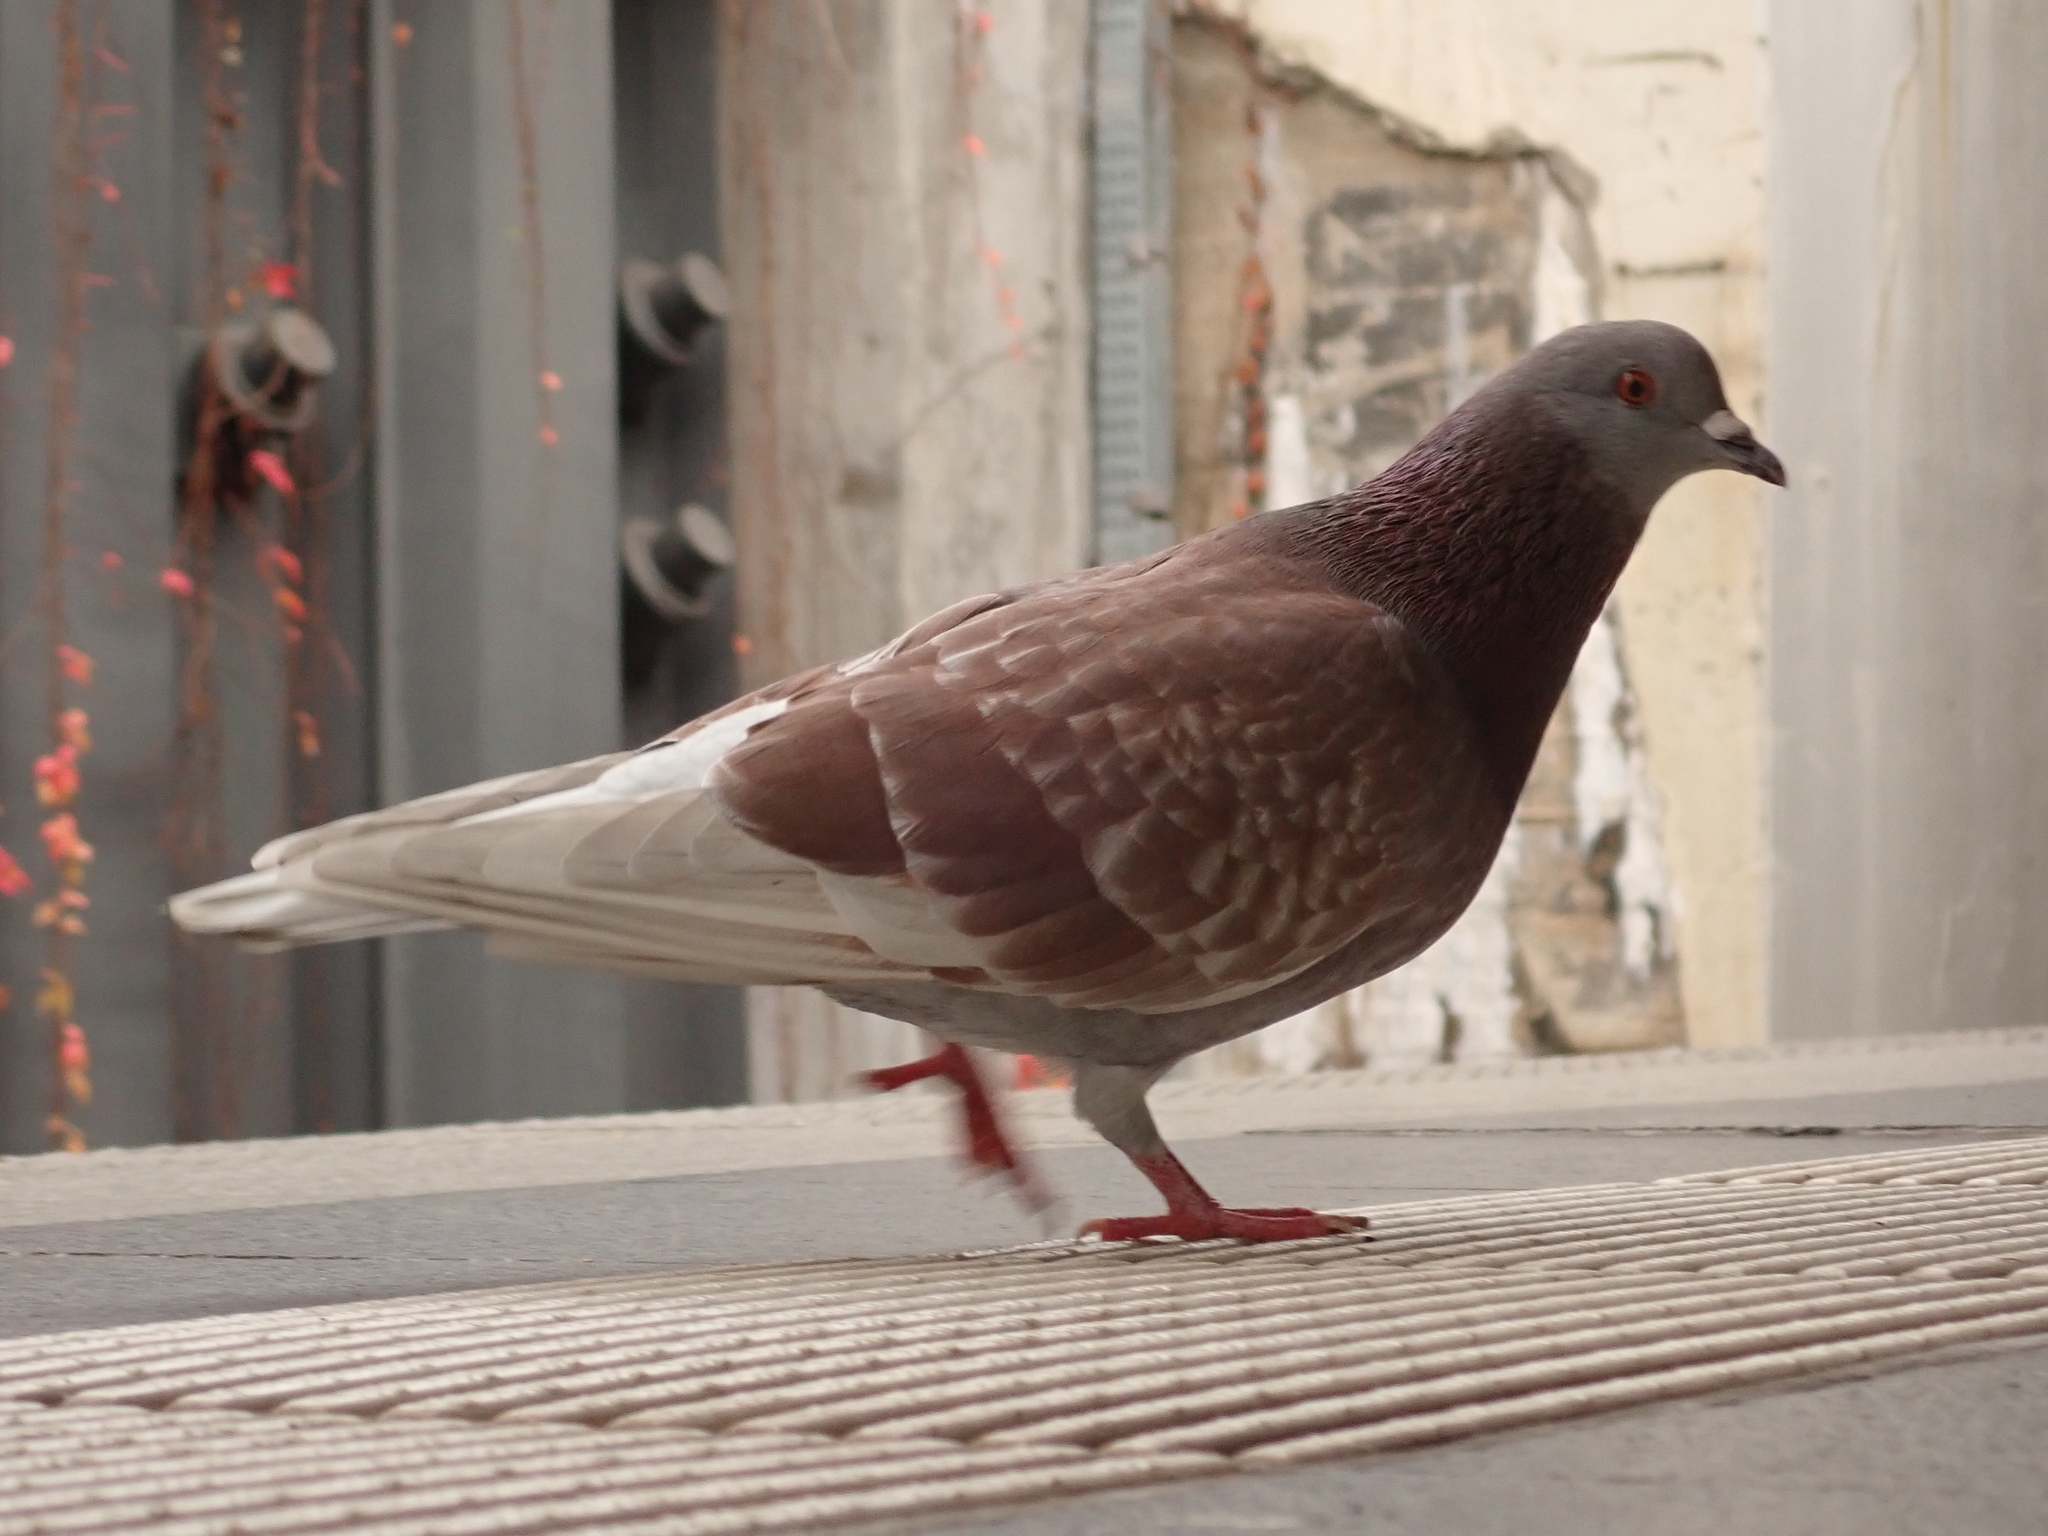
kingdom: Animalia
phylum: Chordata
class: Aves
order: Columbiformes
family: Columbidae
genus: Columba
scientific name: Columba livia
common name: Rock pigeon
